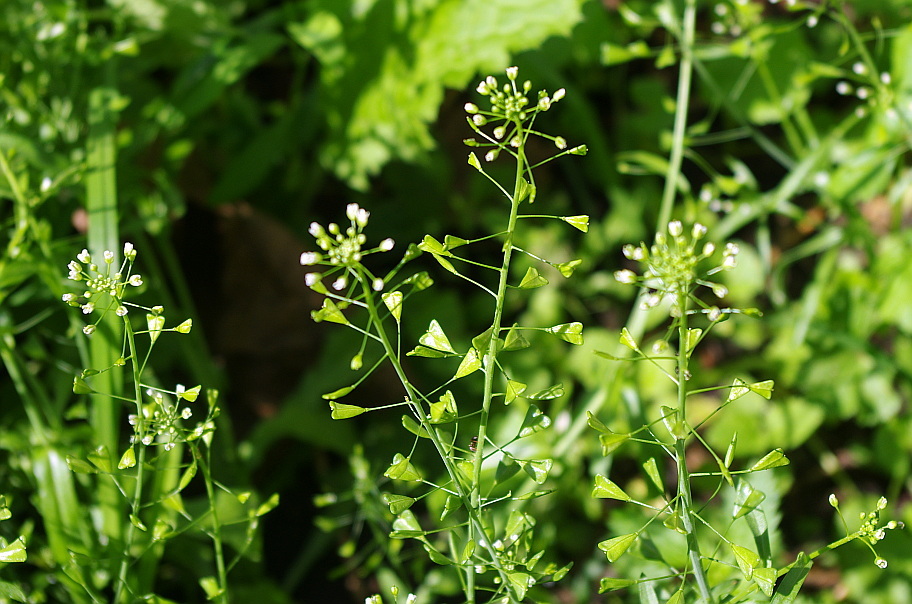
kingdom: Plantae
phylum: Tracheophyta
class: Magnoliopsida
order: Brassicales
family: Brassicaceae
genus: Capsella
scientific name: Capsella bursa-pastoris
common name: Shepherd's purse
